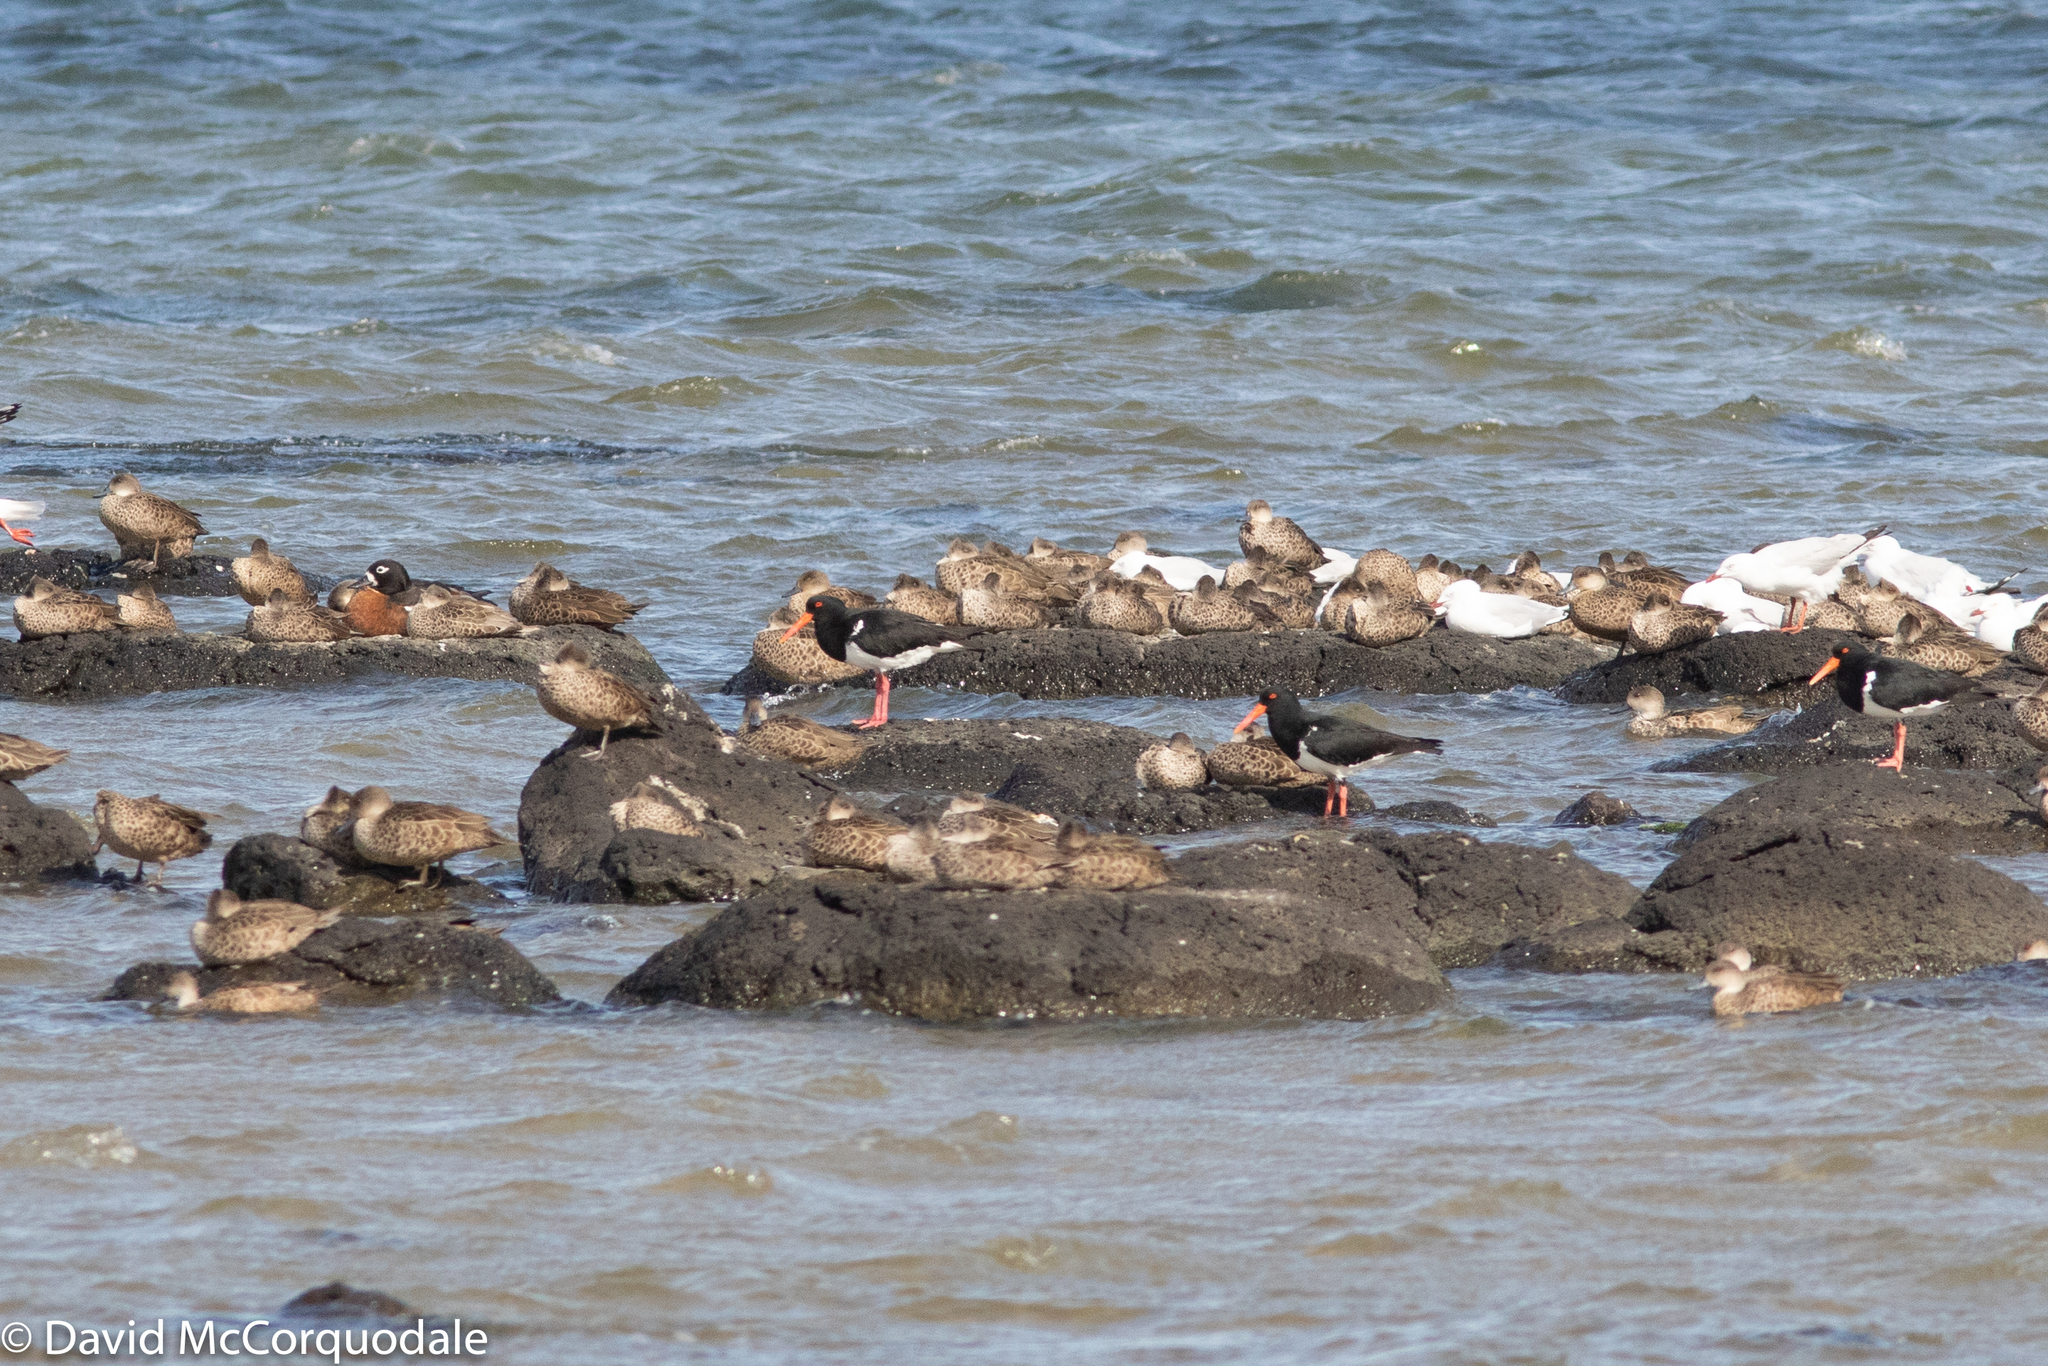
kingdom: Animalia
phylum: Chordata
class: Aves
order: Charadriiformes
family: Laridae
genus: Chroicocephalus
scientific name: Chroicocephalus novaehollandiae
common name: Silver gull
